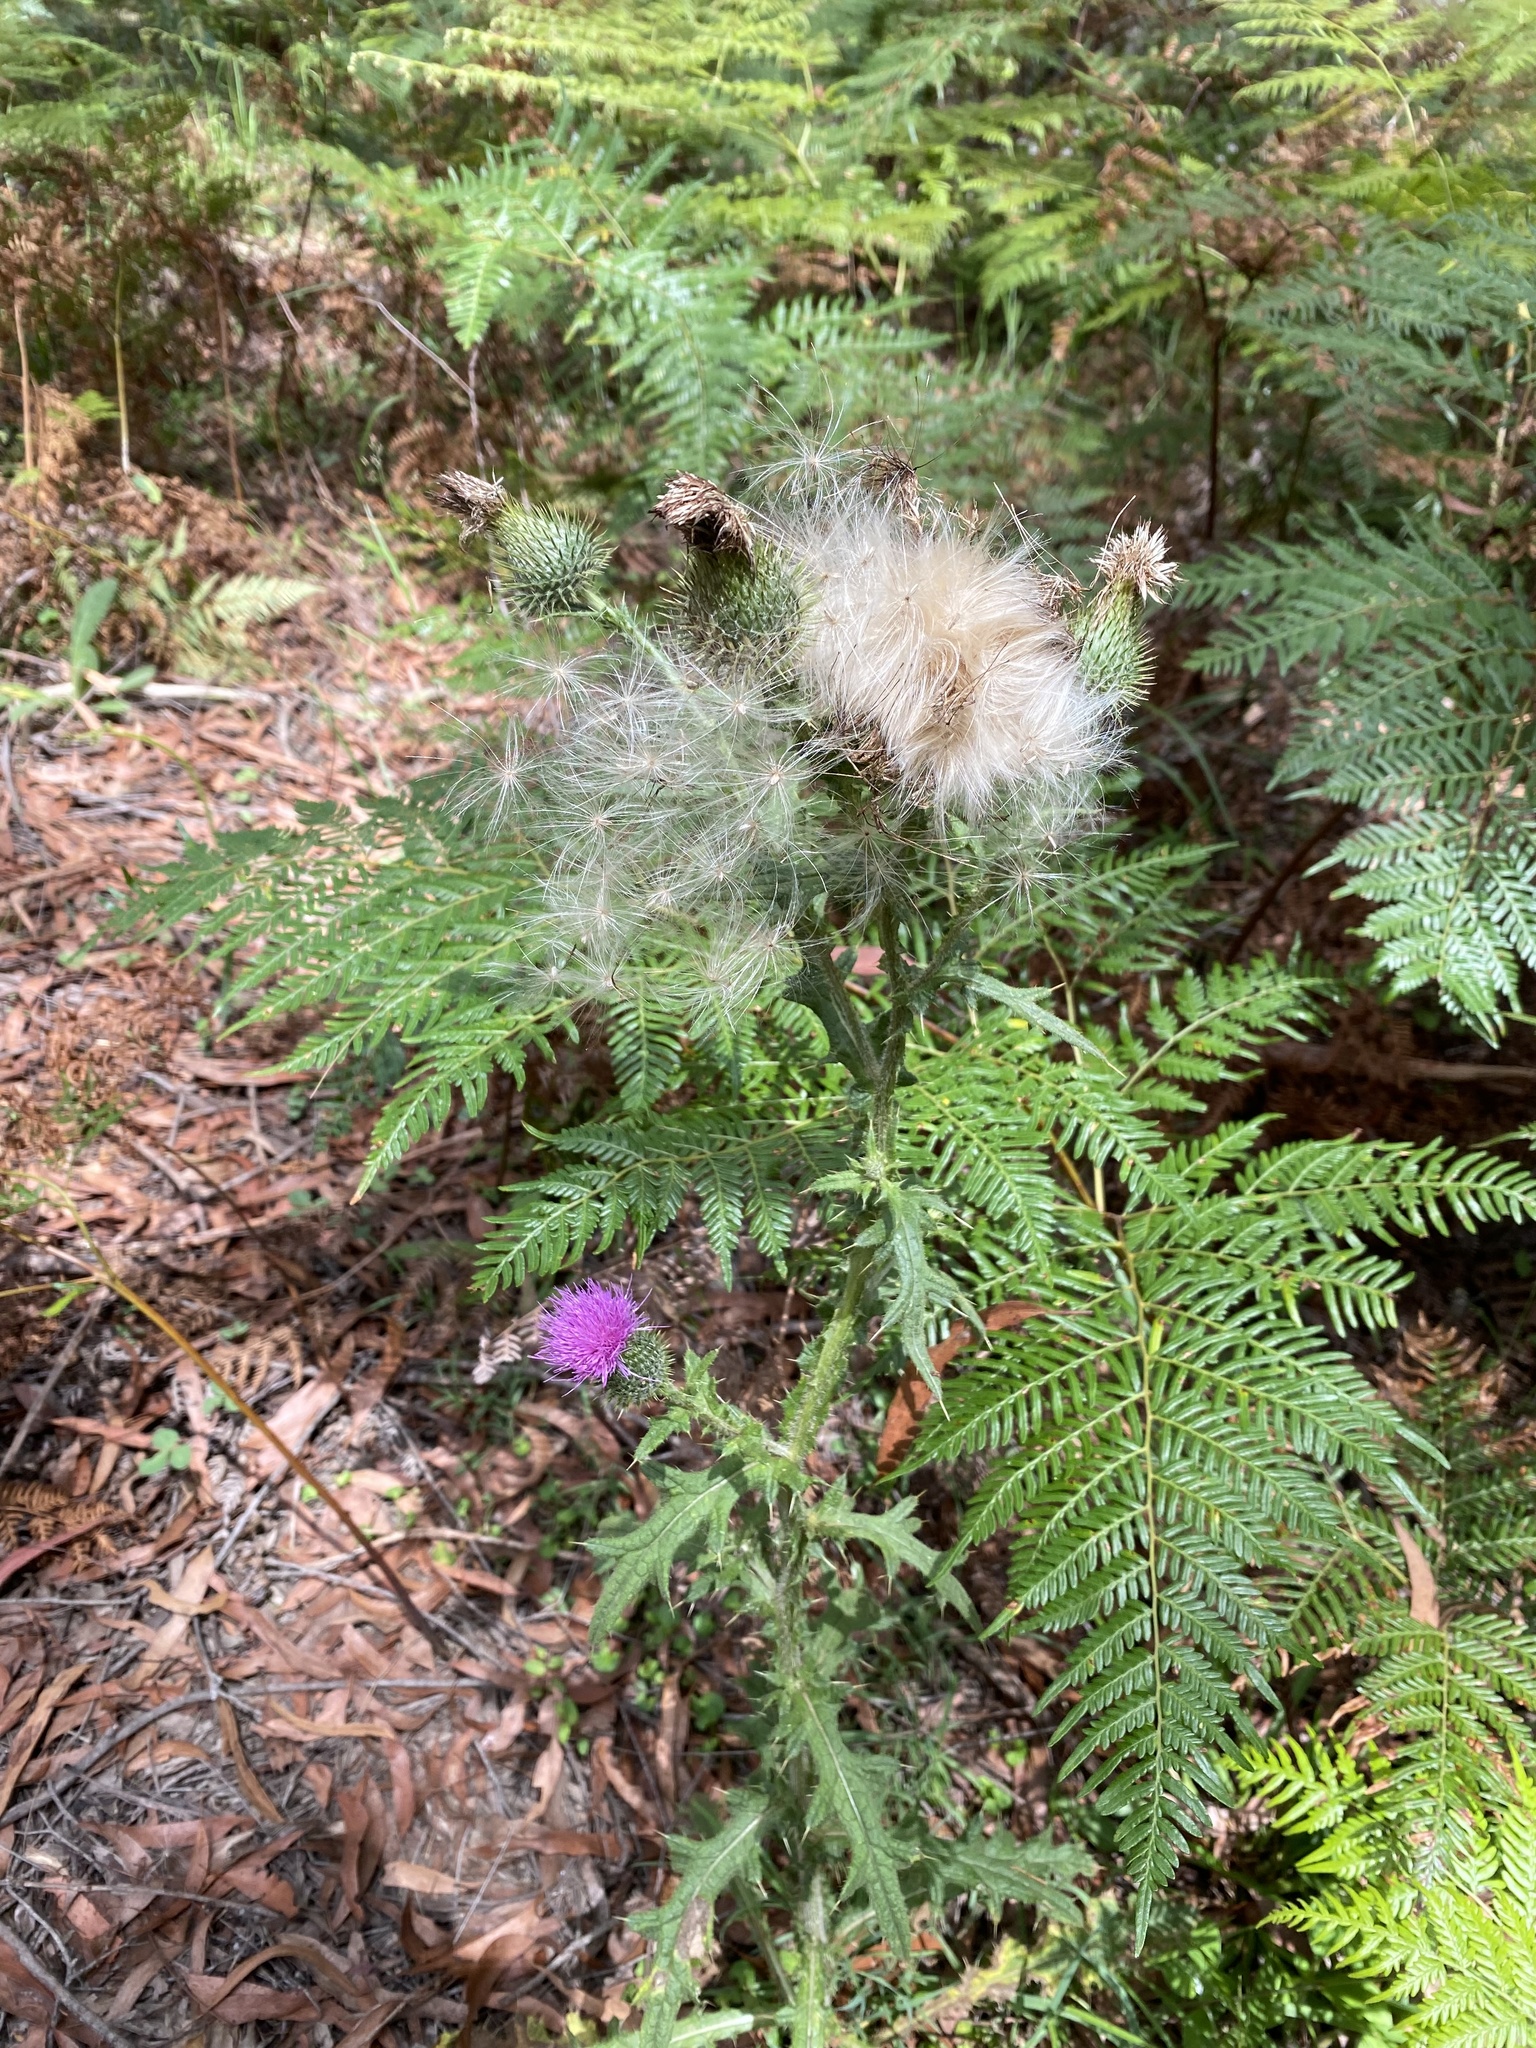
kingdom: Plantae
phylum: Tracheophyta
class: Magnoliopsida
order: Asterales
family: Asteraceae
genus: Cirsium
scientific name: Cirsium vulgare
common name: Bull thistle
